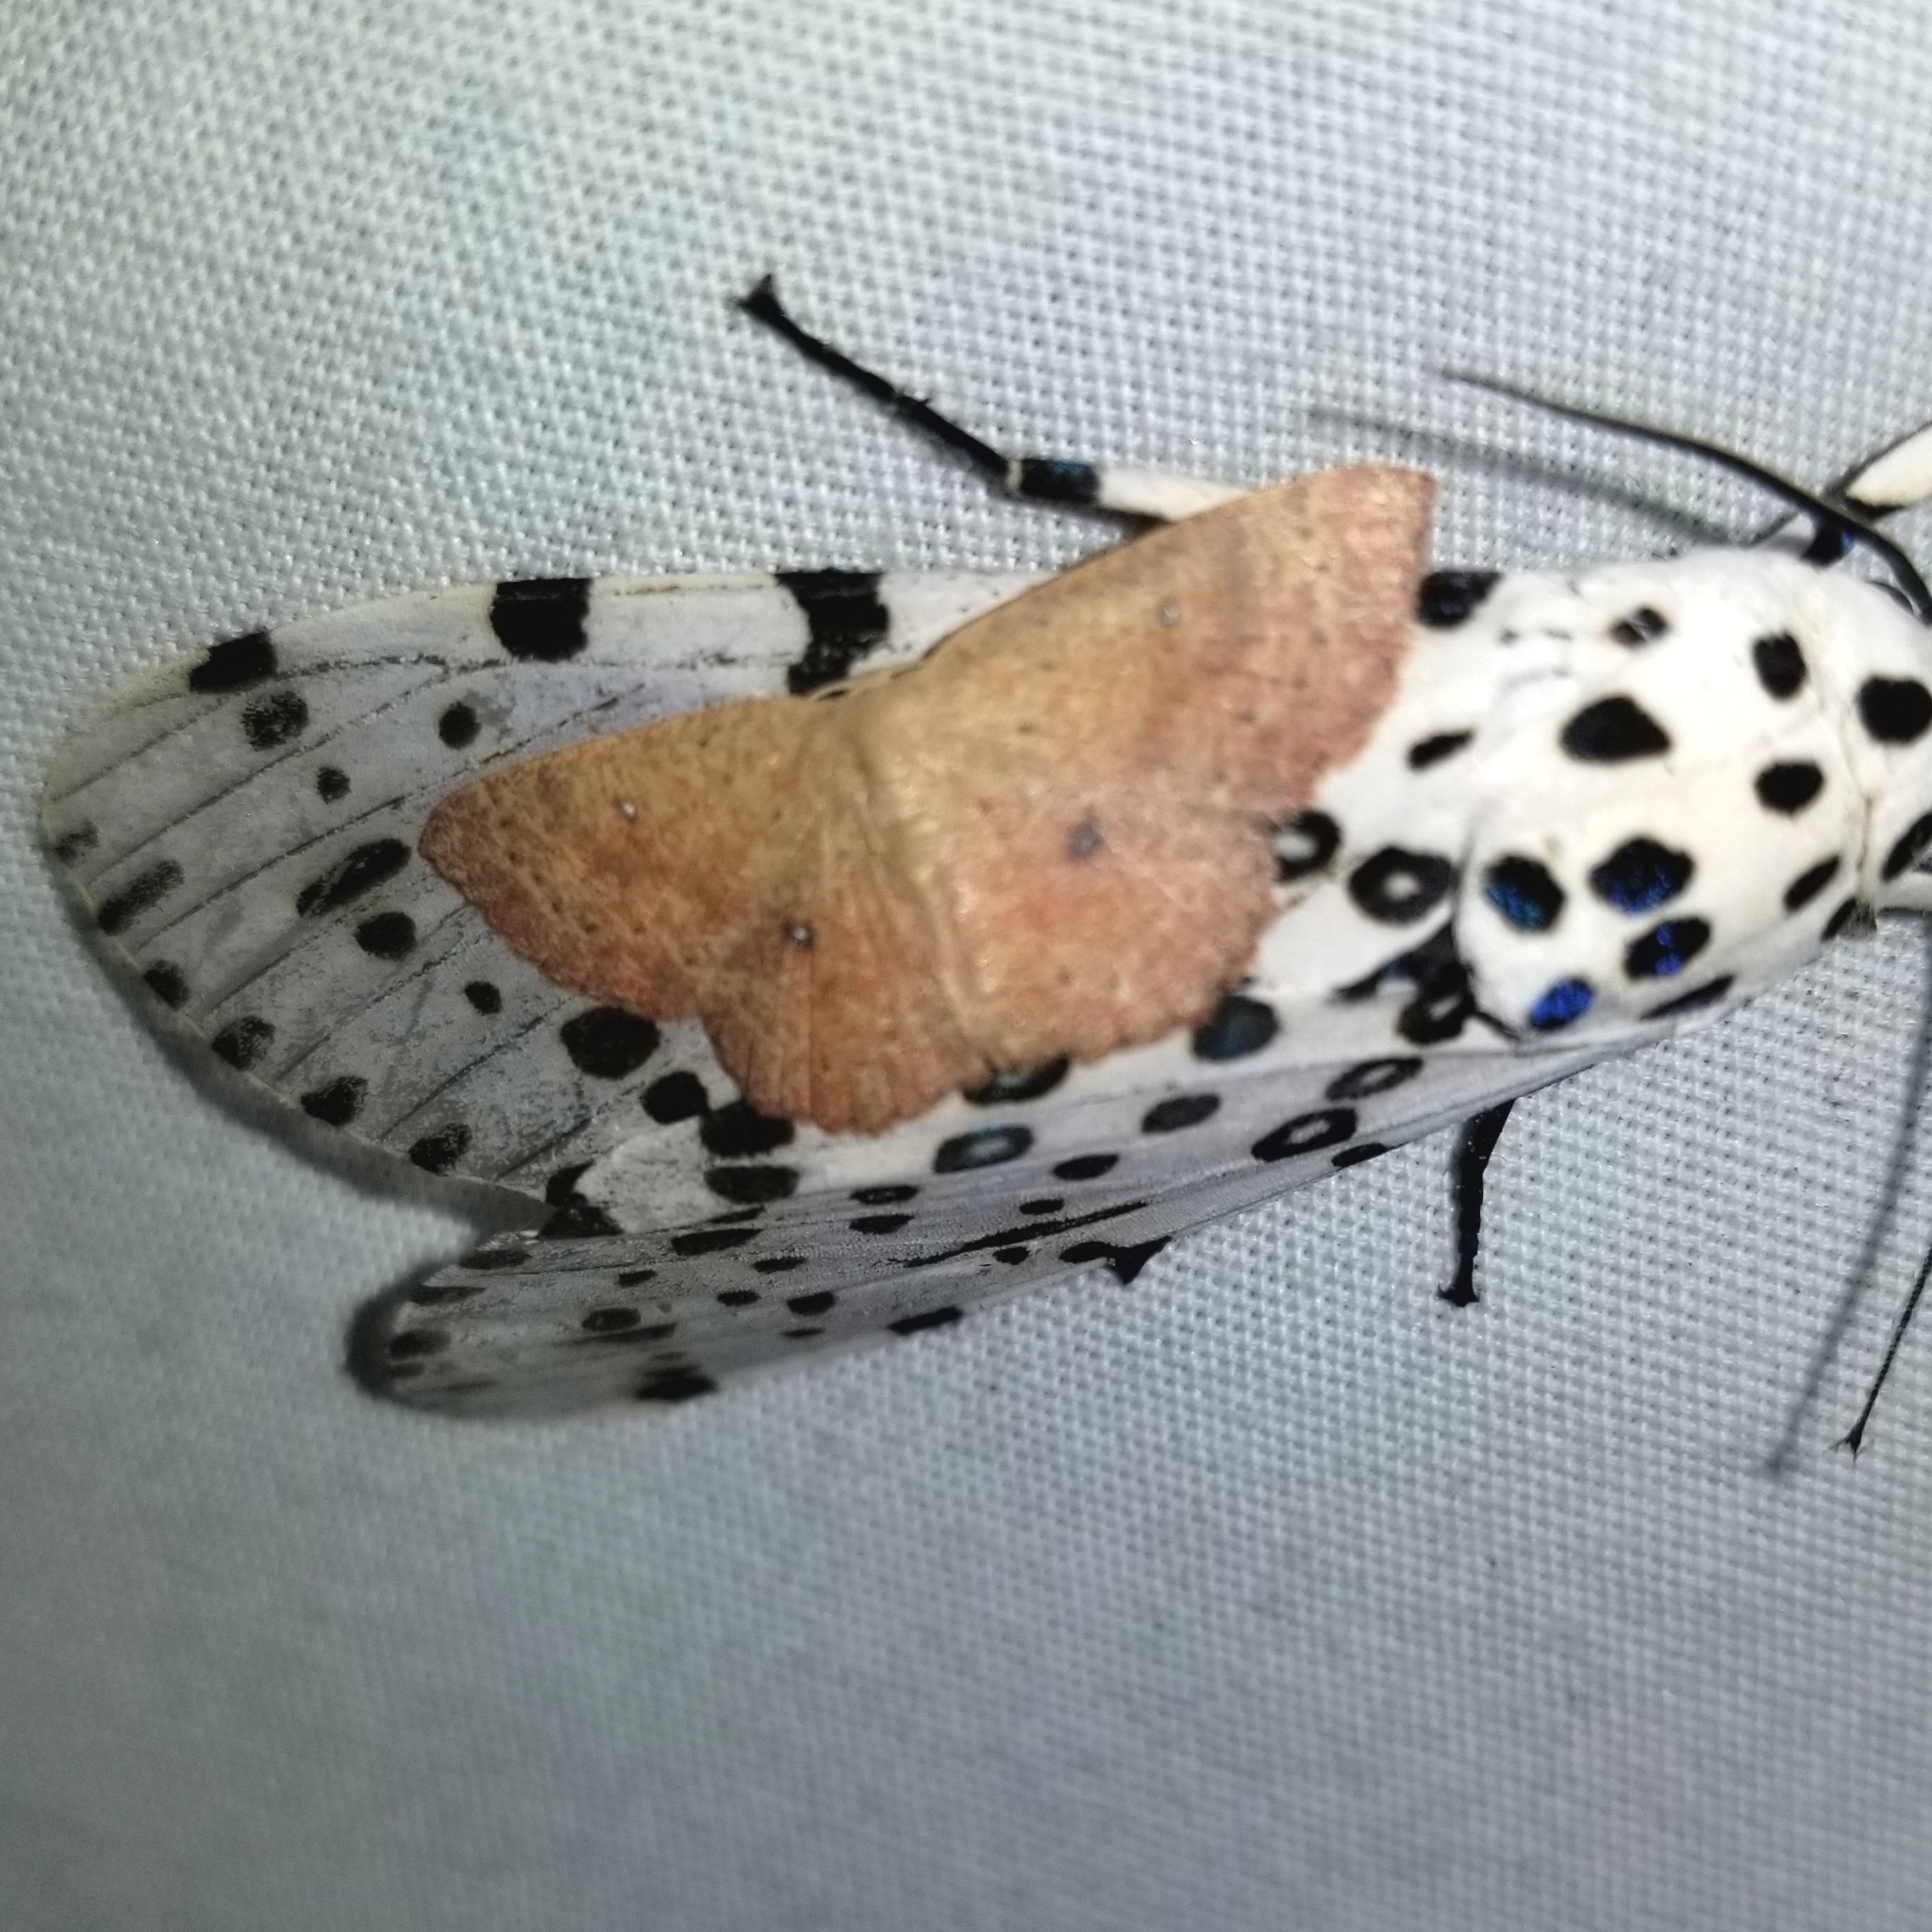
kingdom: Animalia
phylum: Arthropoda
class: Insecta
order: Lepidoptera
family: Geometridae
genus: Cyclophora
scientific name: Cyclophora packardi
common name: Packard's wave
